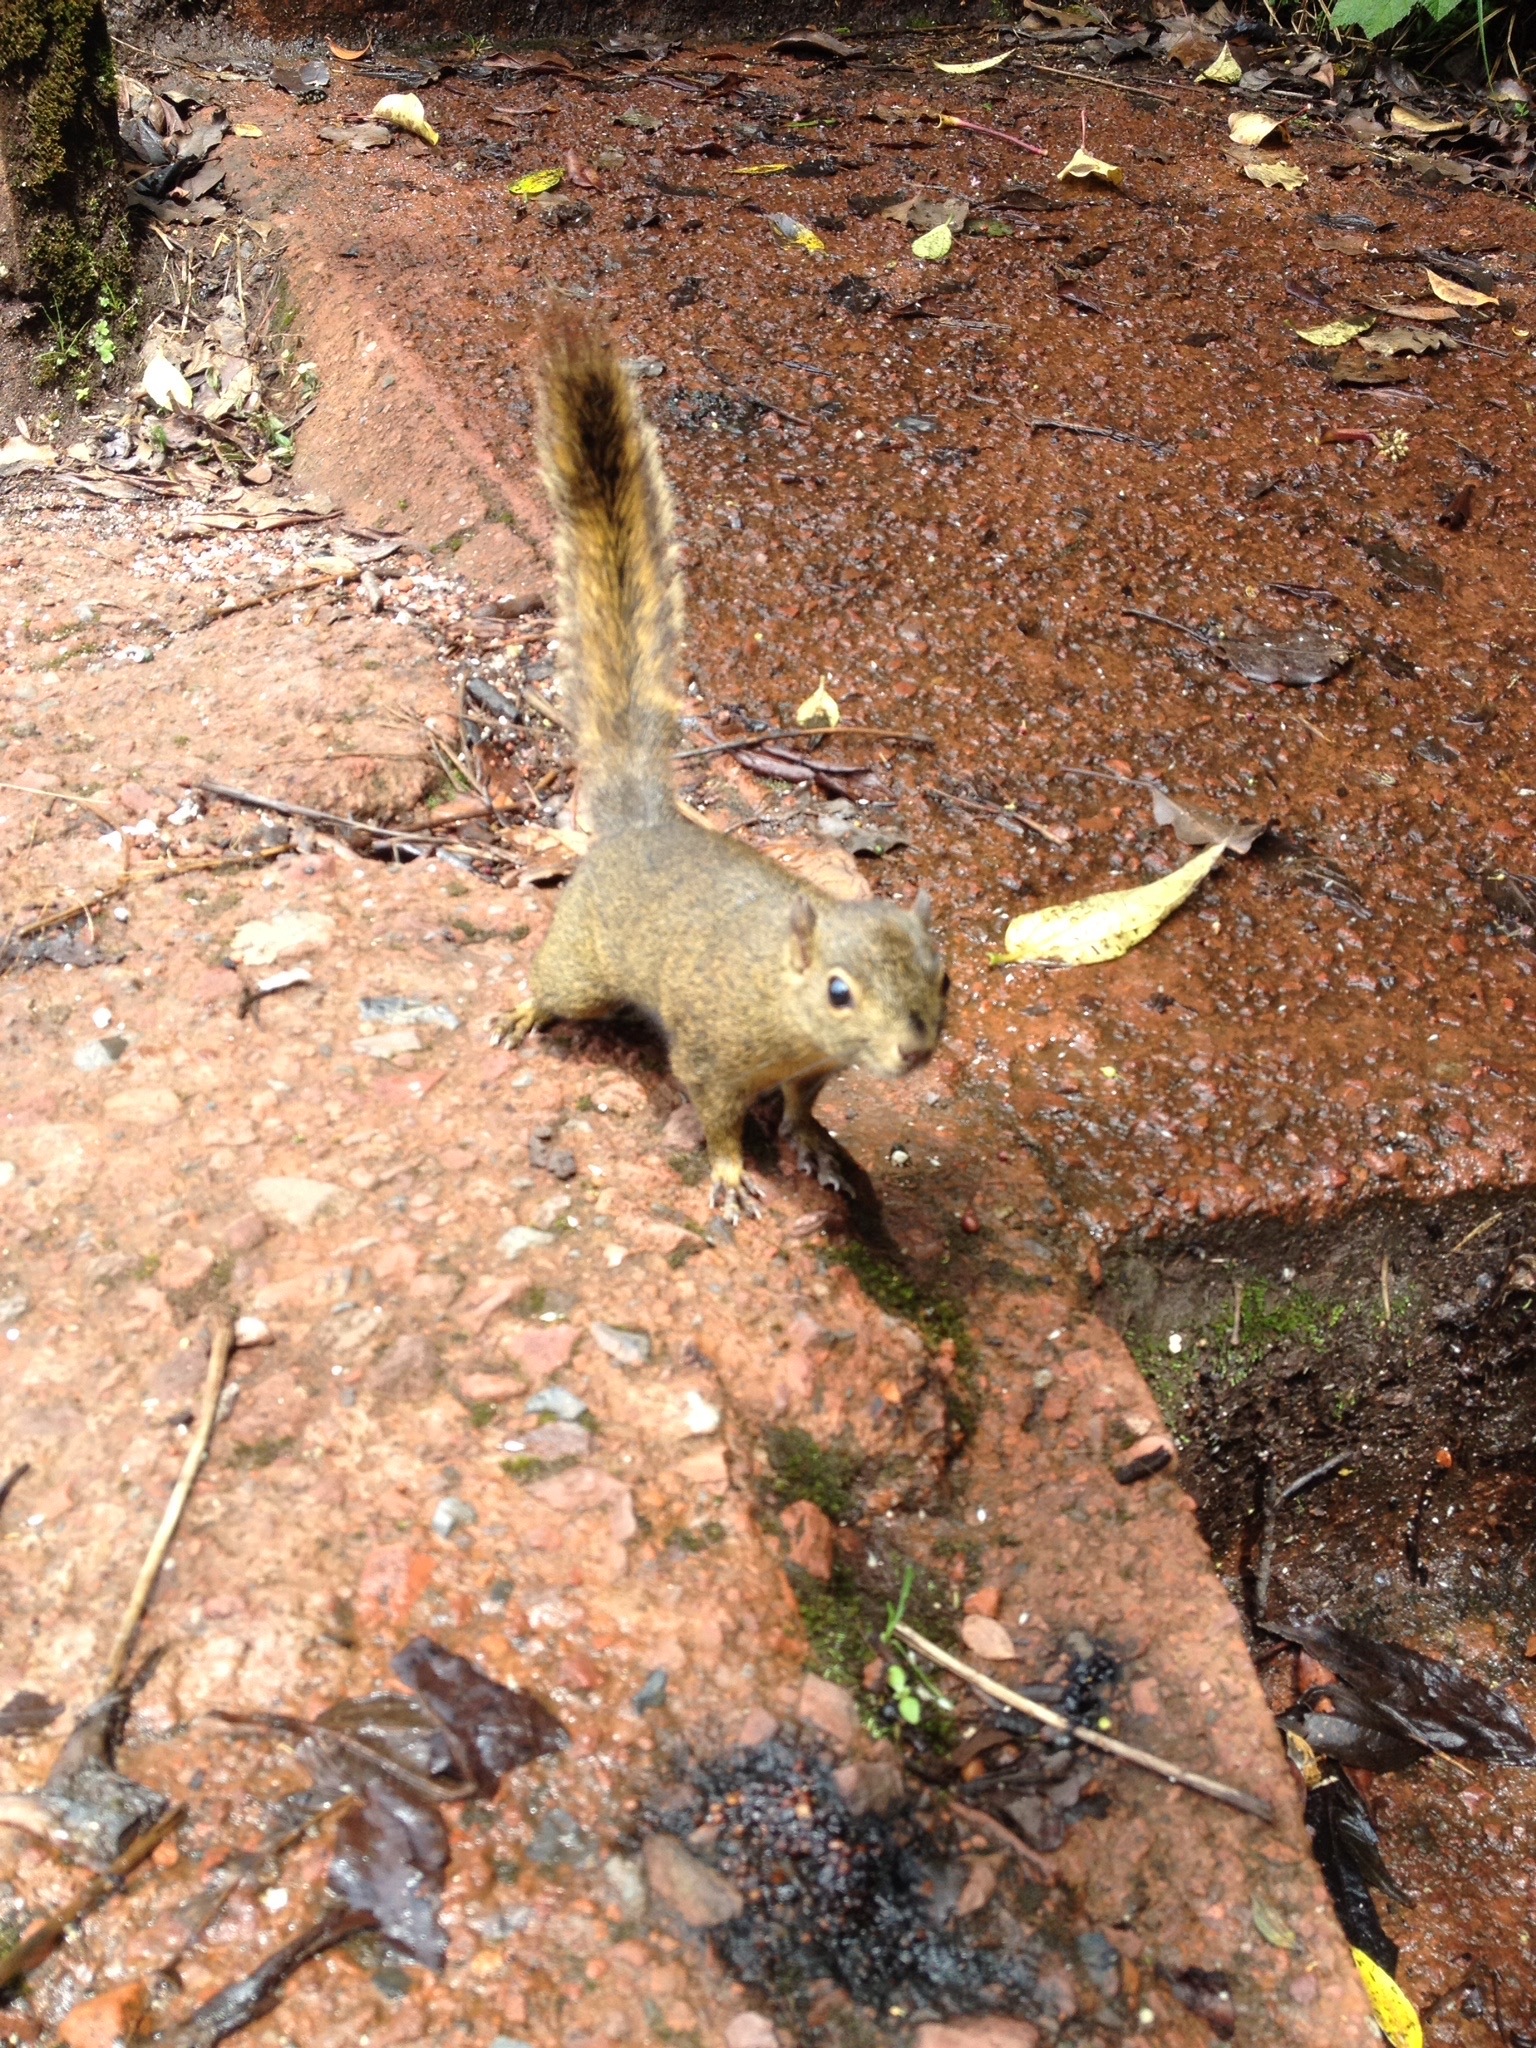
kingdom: Animalia
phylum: Chordata
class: Mammalia
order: Rodentia
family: Sciuridae
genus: Sciurus
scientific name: Sciurus granatensis
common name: Red-tailed squirrel
